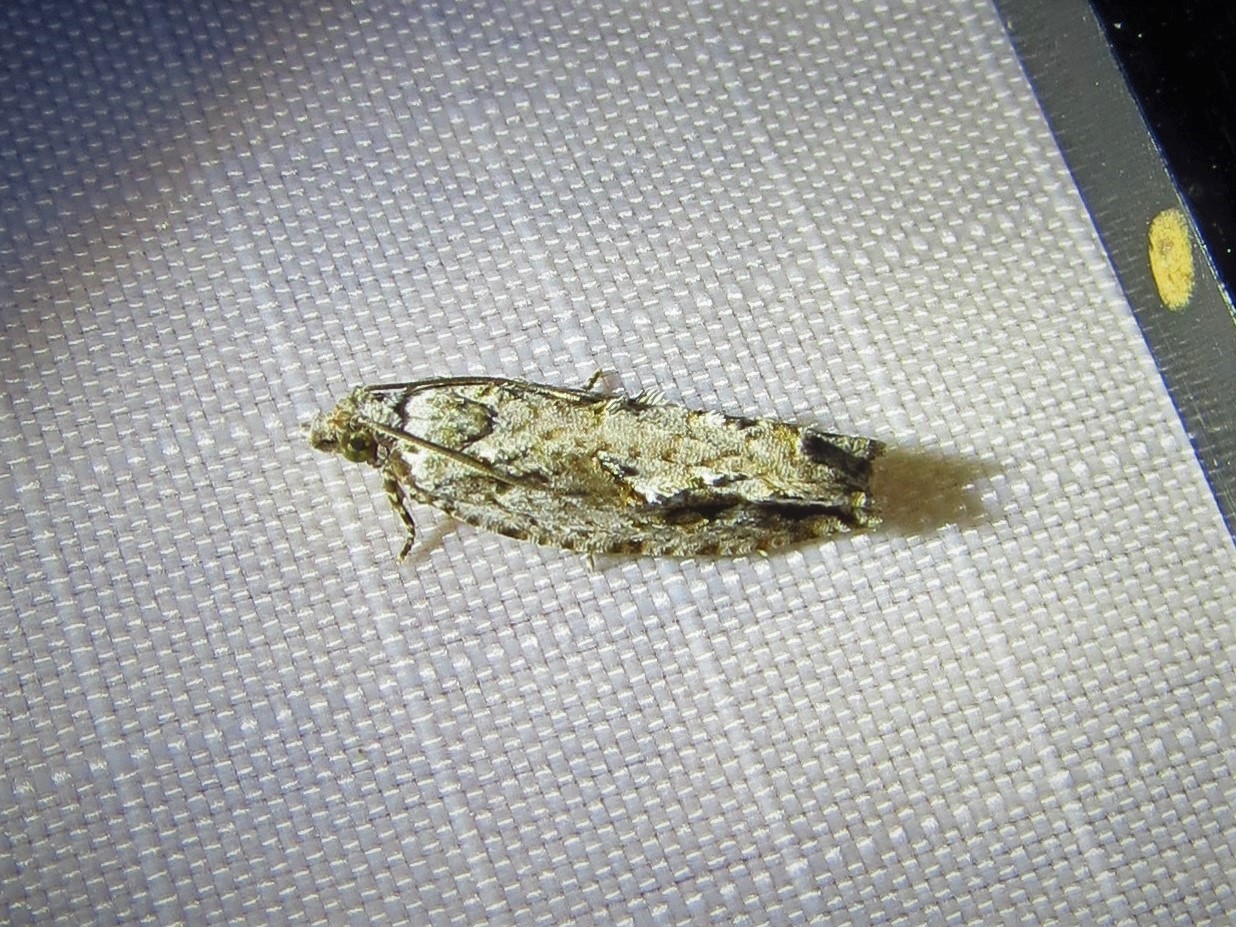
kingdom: Animalia
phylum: Arthropoda
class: Insecta
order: Lepidoptera
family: Tortricidae
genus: Gretchena
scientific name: Gretchena bolliana
